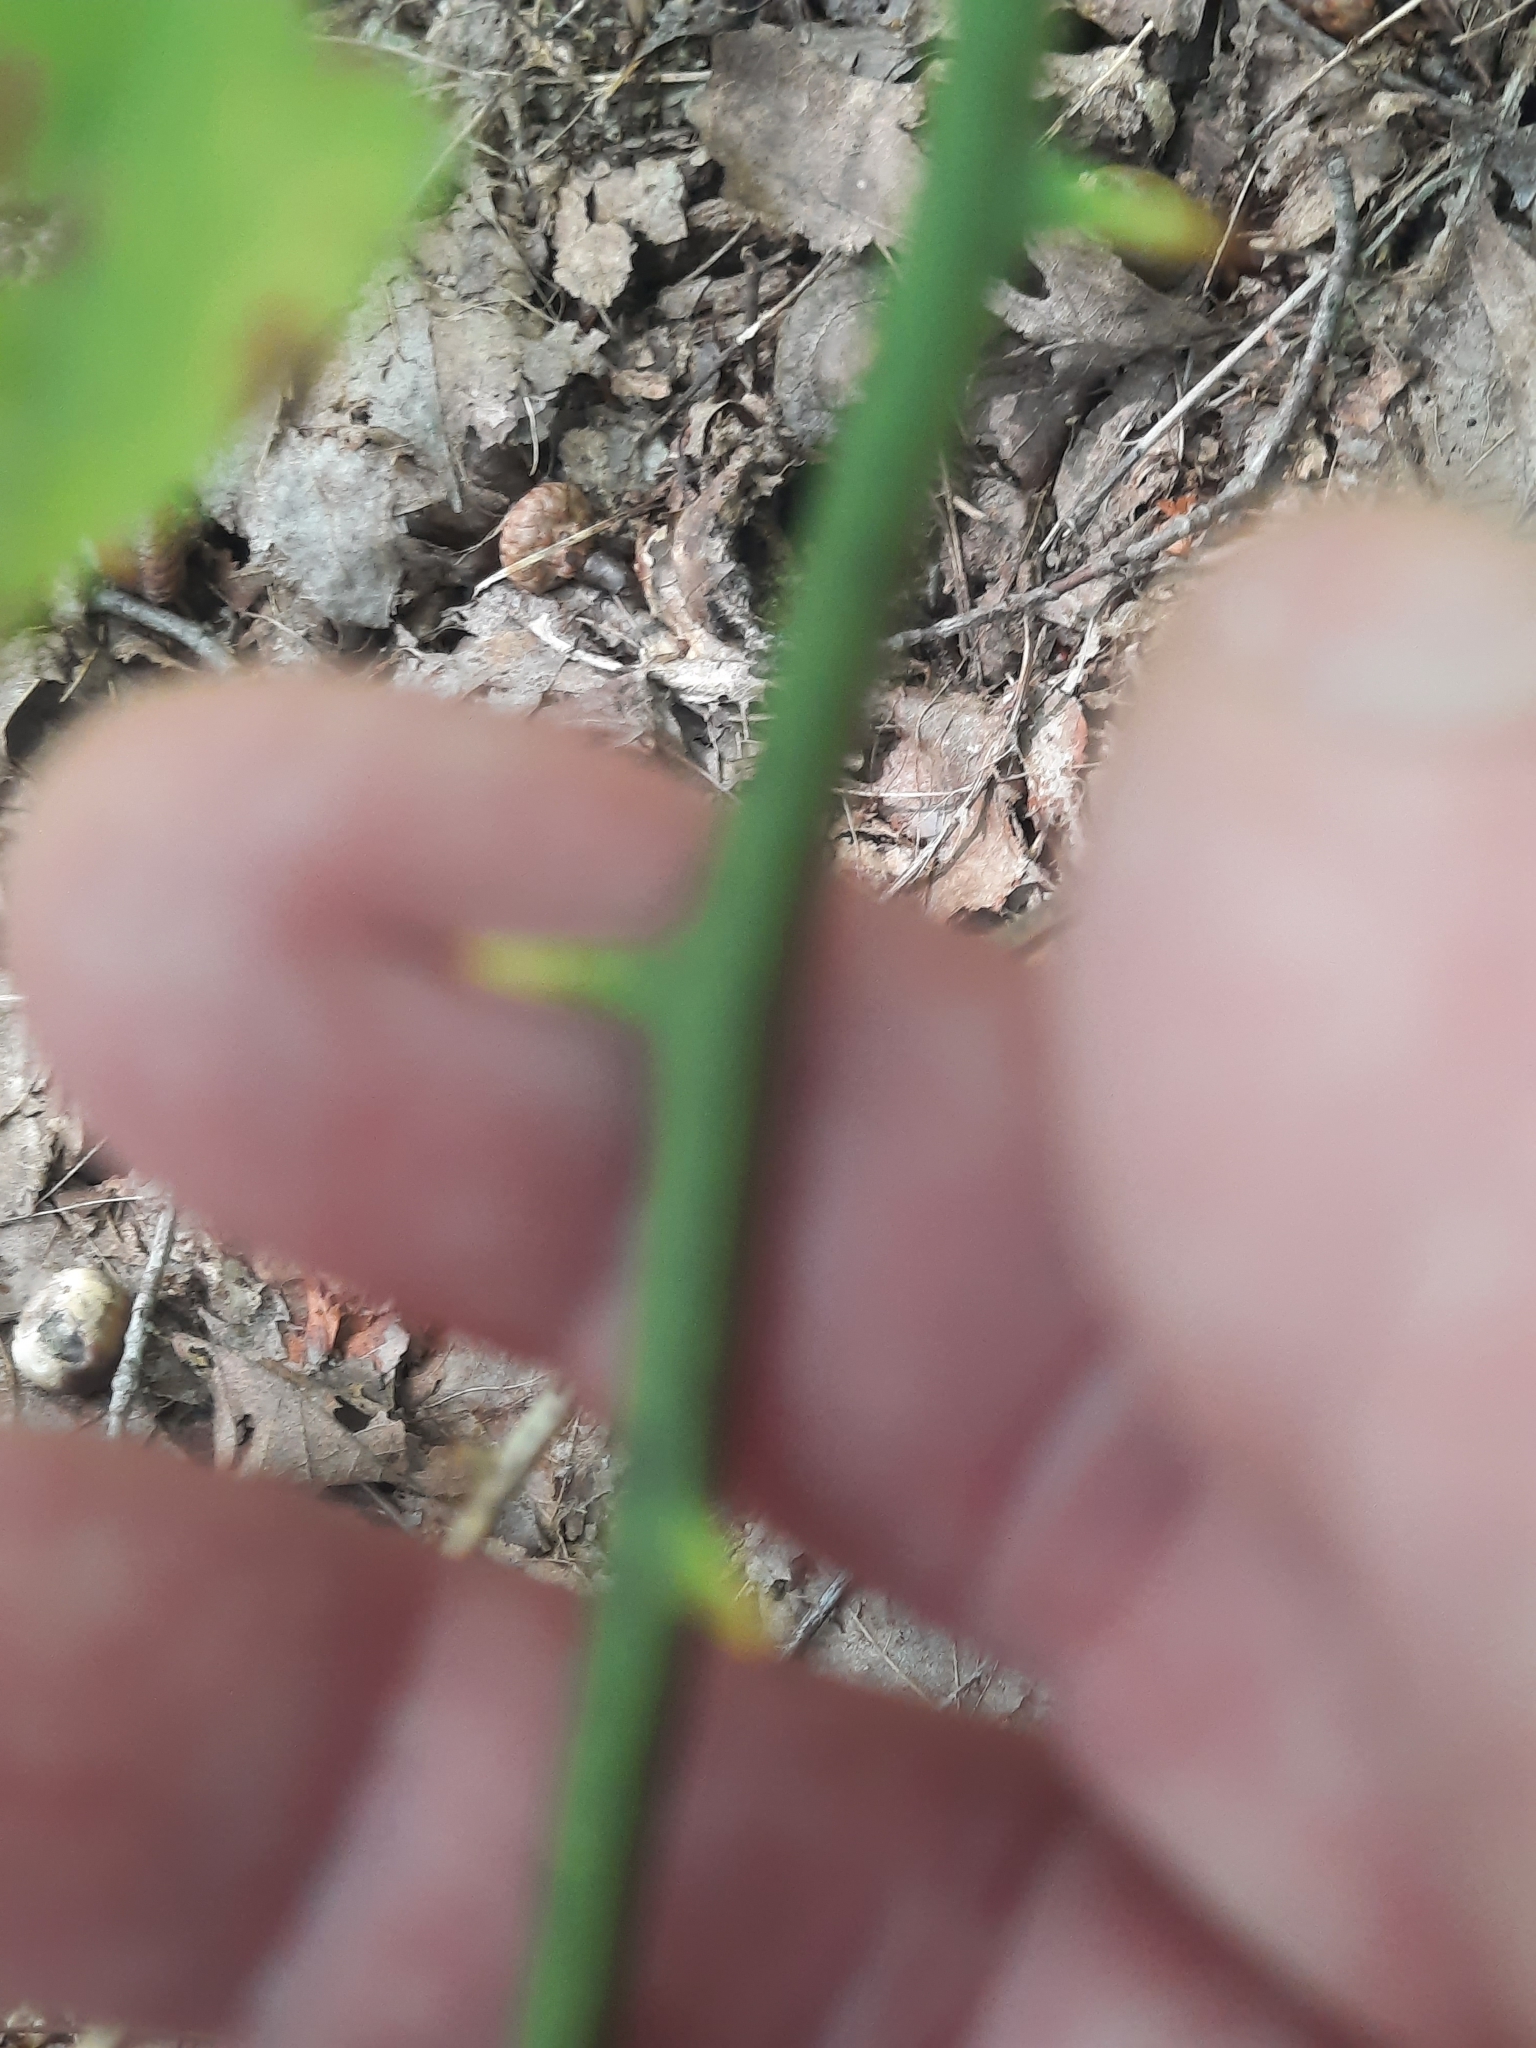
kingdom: Plantae
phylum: Tracheophyta
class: Liliopsida
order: Liliales
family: Smilacaceae
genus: Smilax
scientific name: Smilax rotundifolia
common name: Bullbriar
